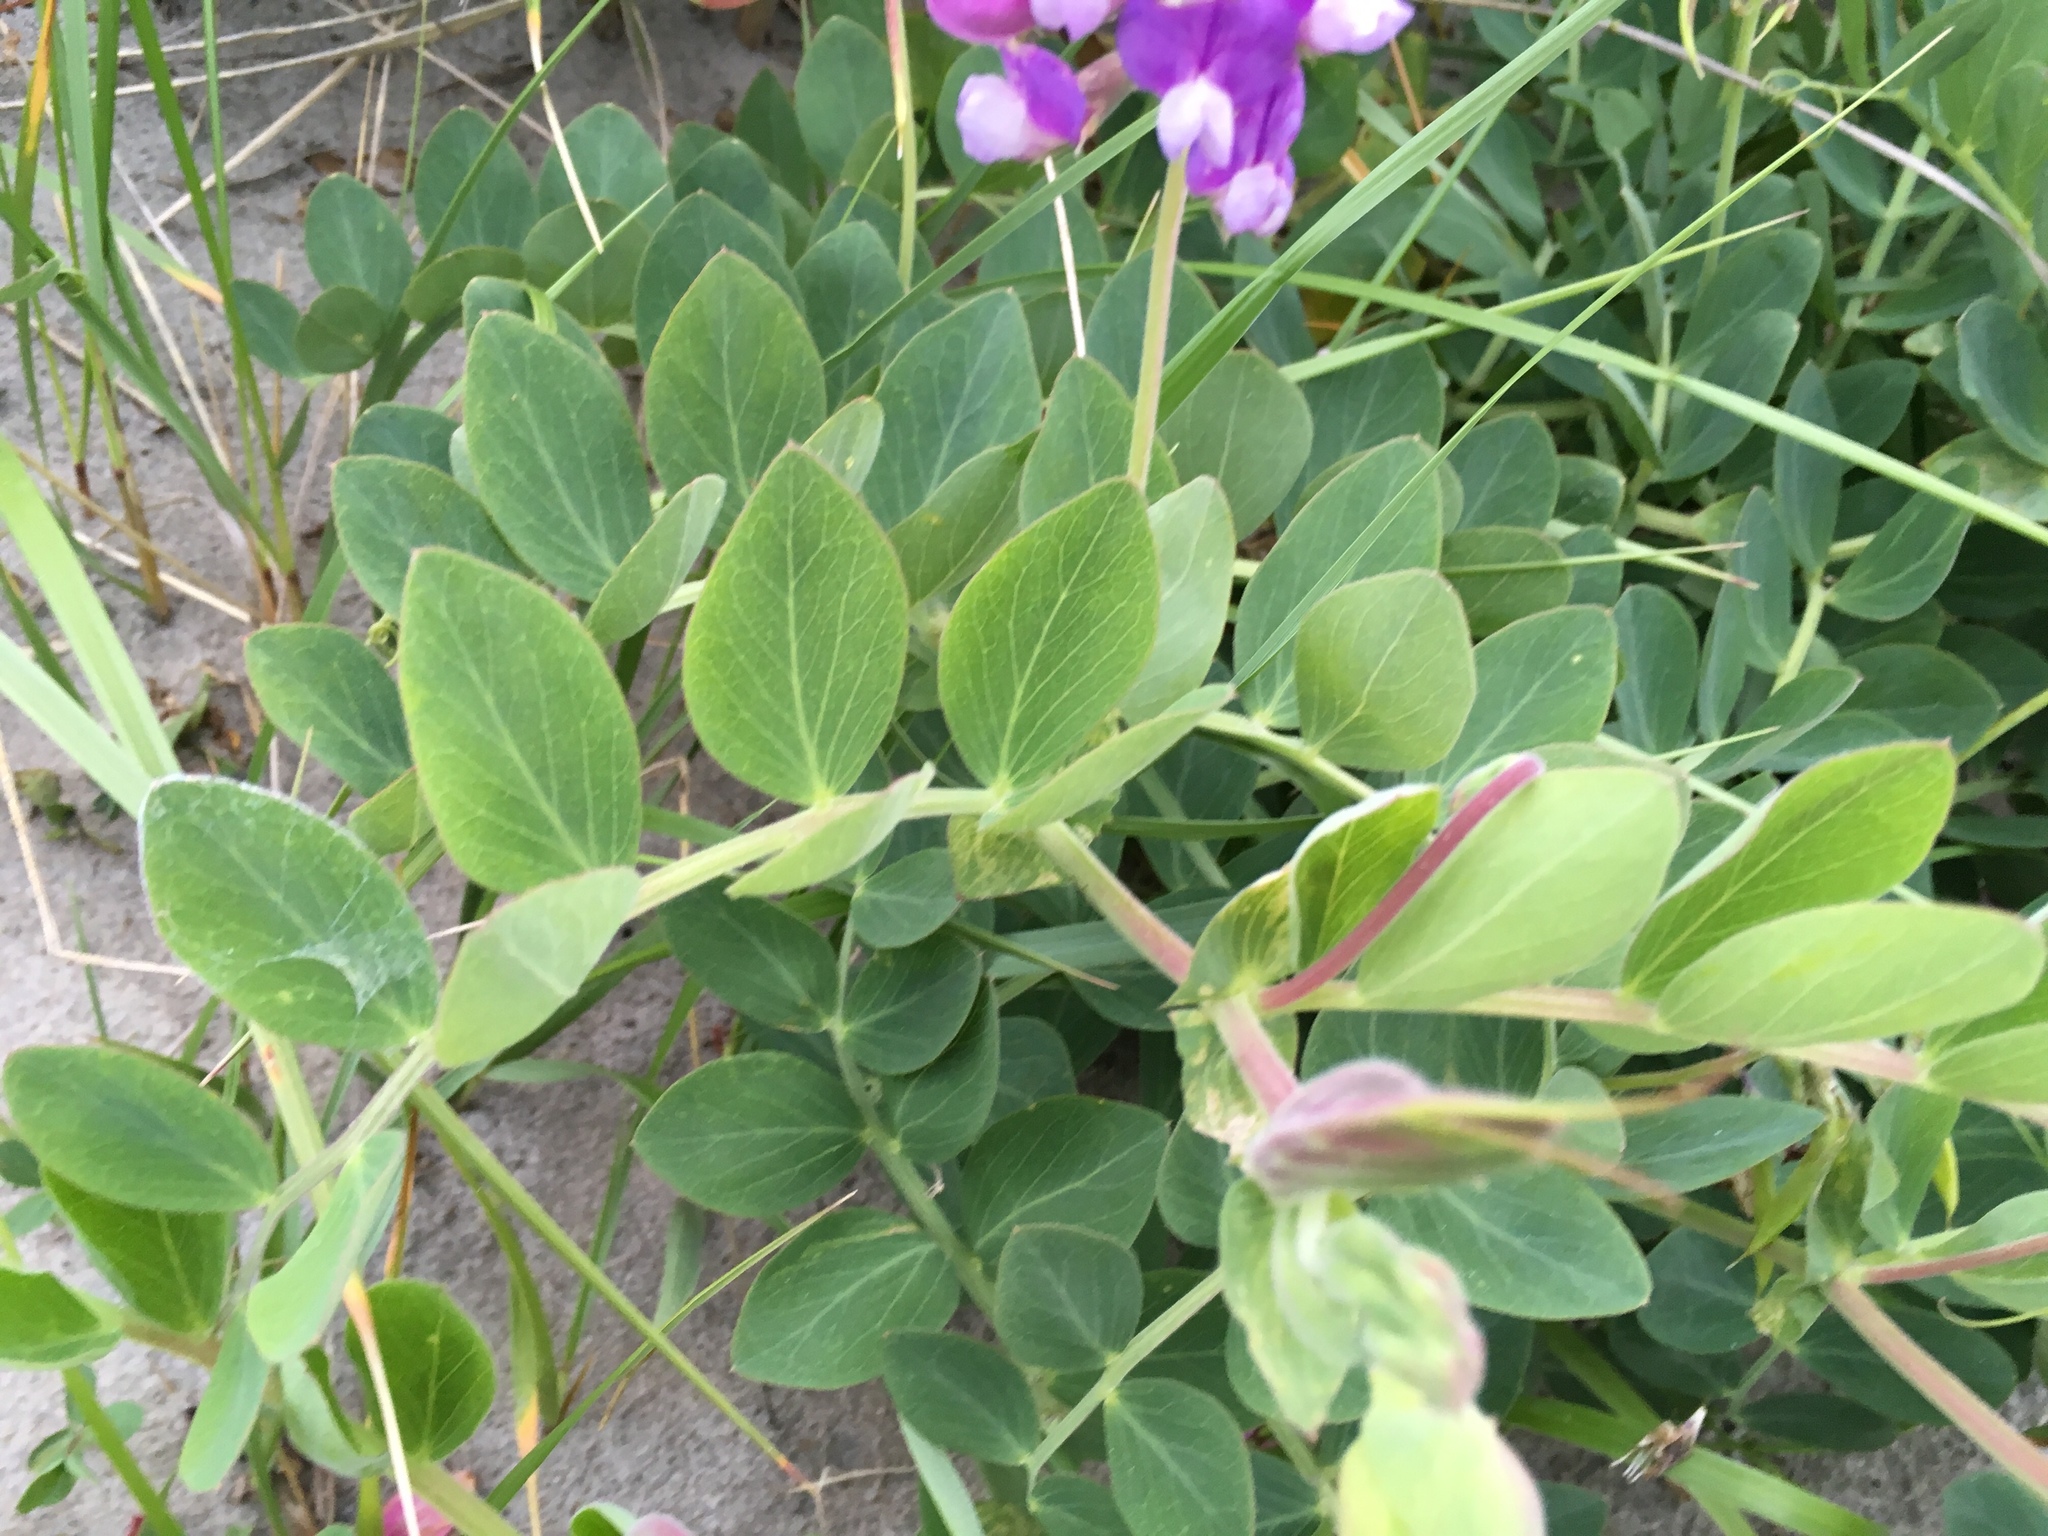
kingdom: Plantae
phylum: Tracheophyta
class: Magnoliopsida
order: Fabales
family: Fabaceae
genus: Lathyrus
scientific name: Lathyrus japonicus
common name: Sea pea
